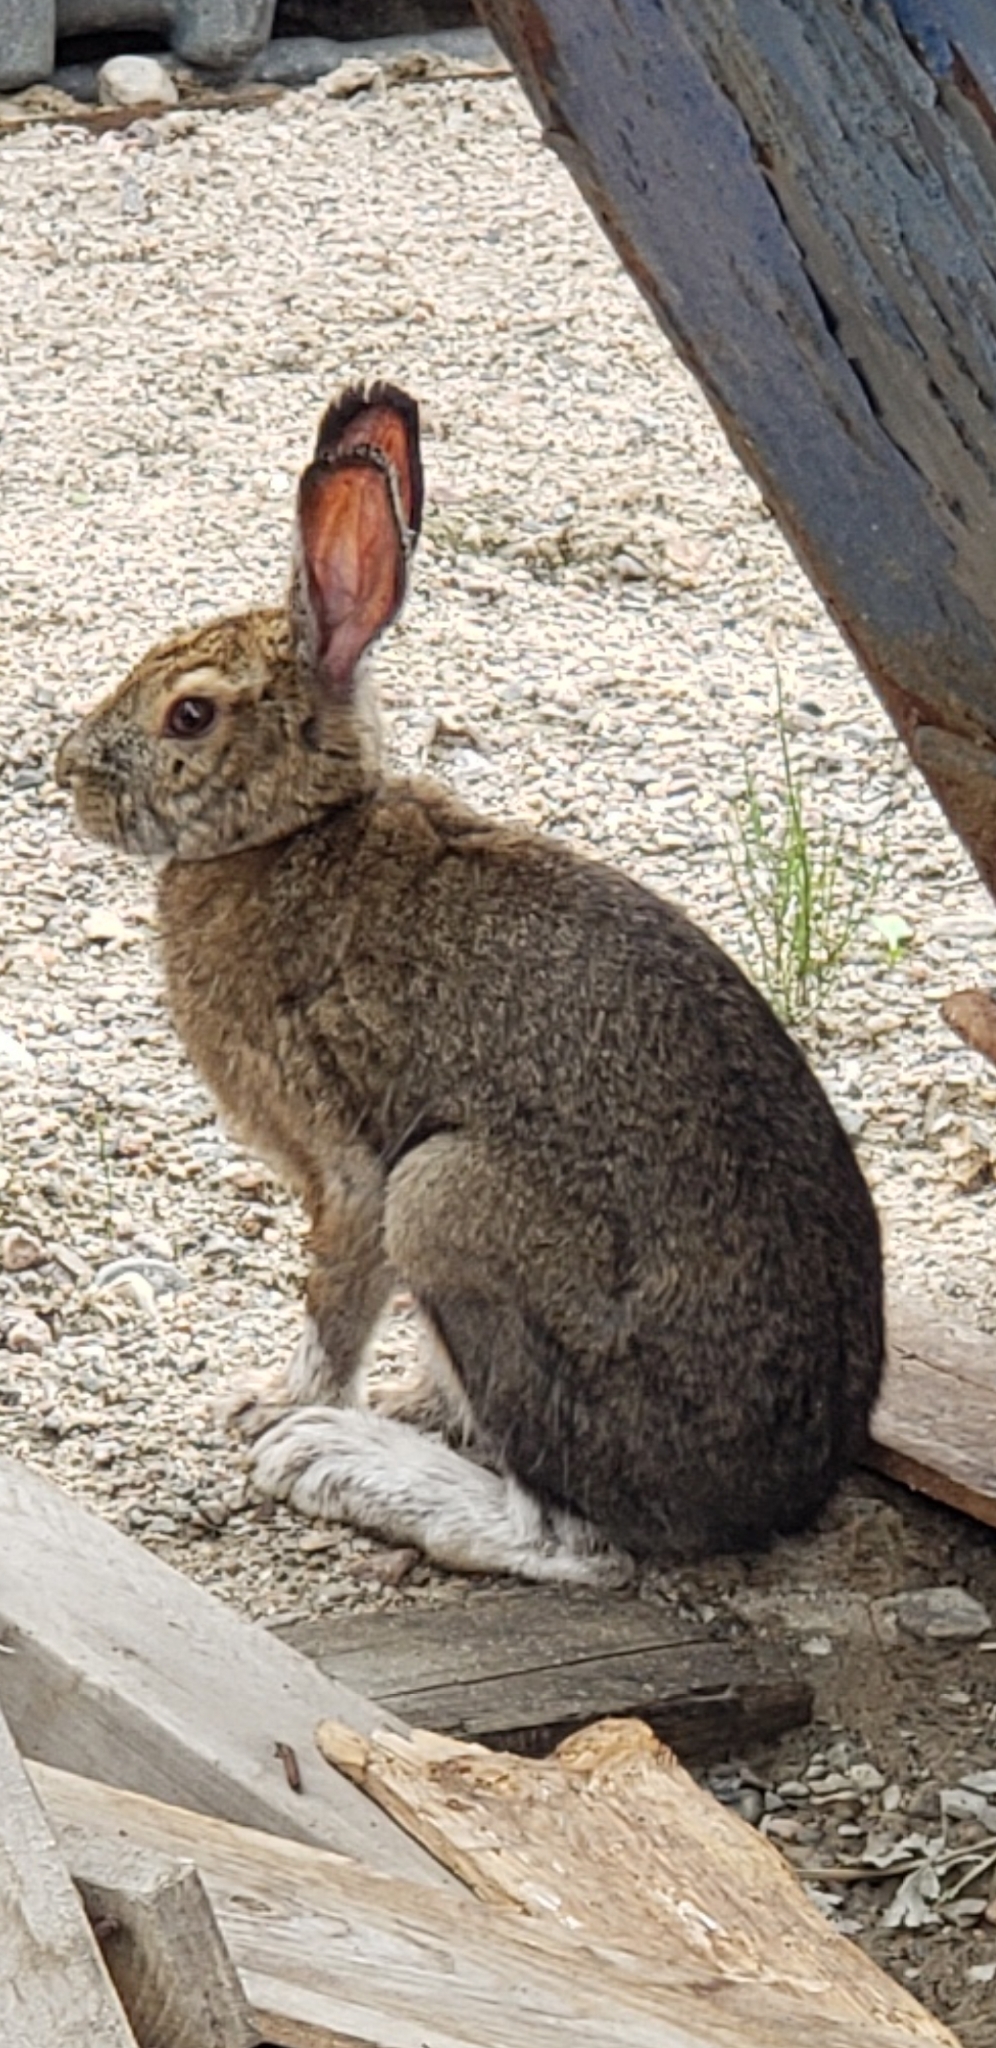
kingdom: Animalia
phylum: Chordata
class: Mammalia
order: Lagomorpha
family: Leporidae
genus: Lepus
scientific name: Lepus americanus
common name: Snowshoe hare
